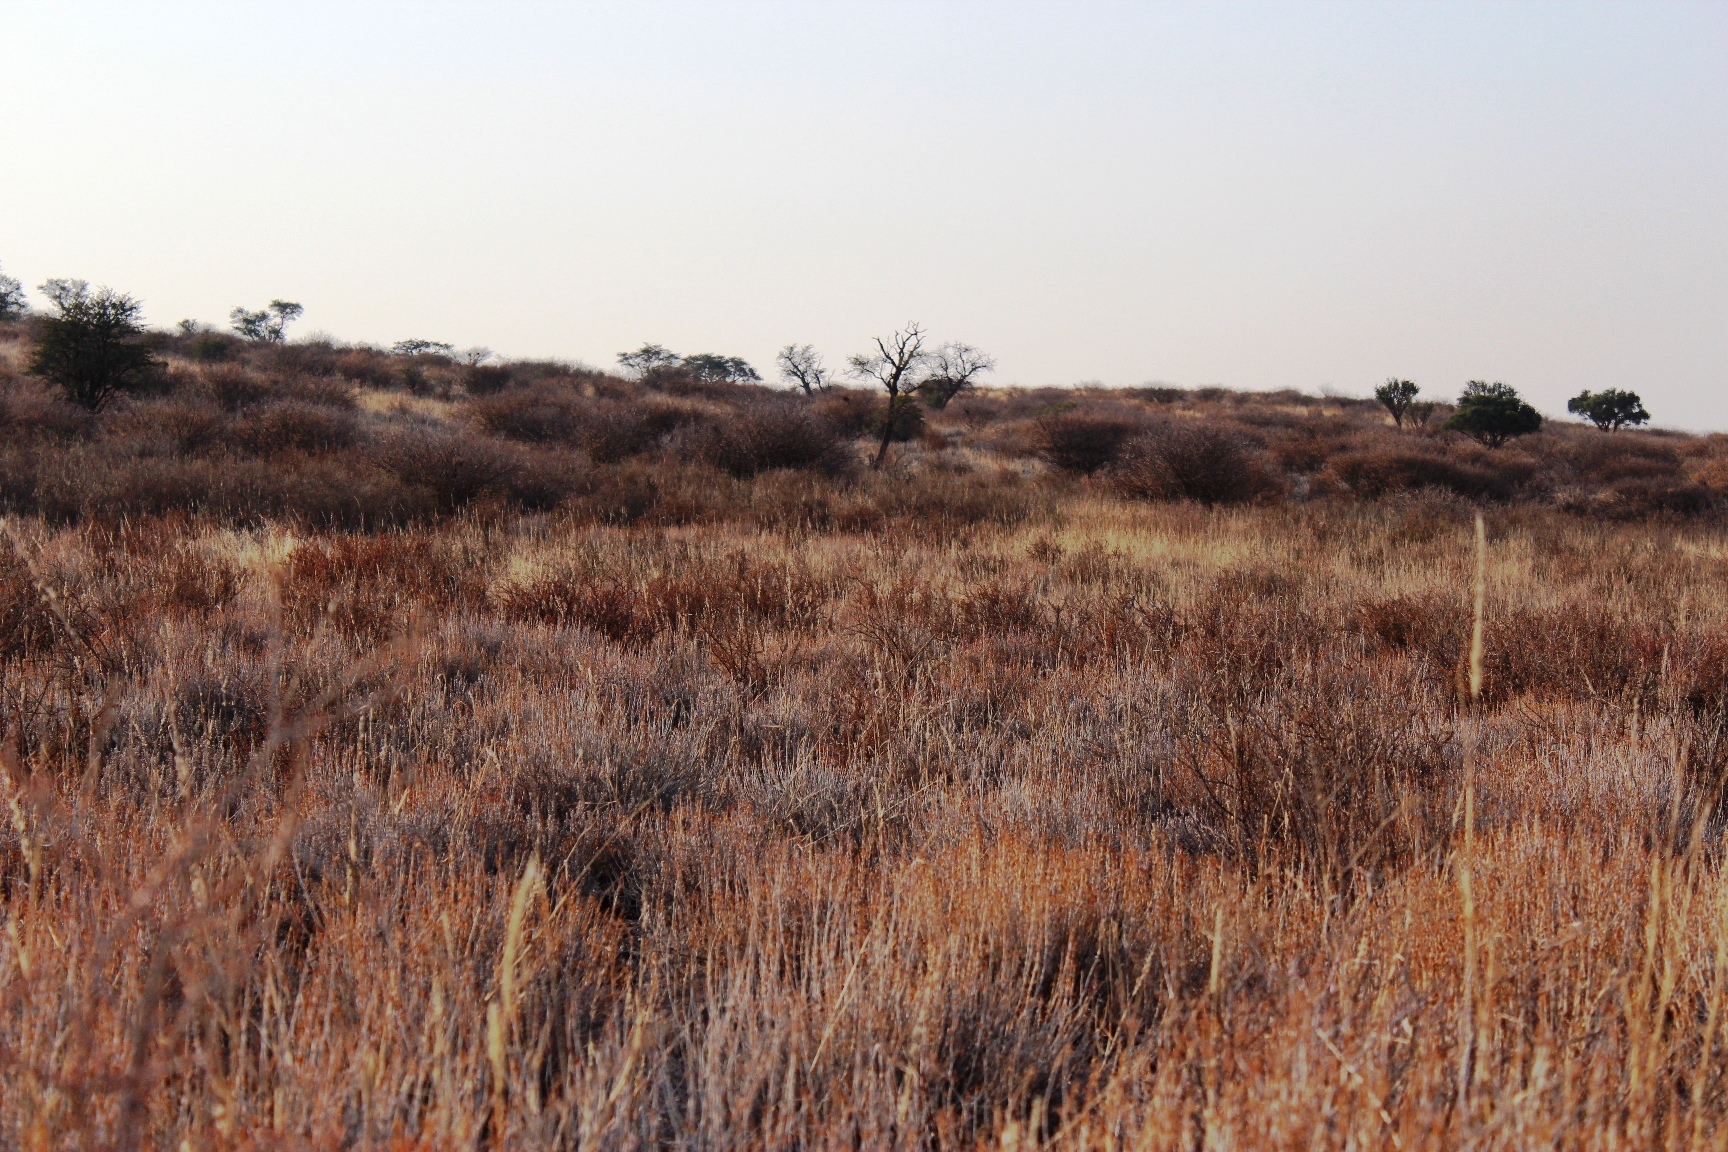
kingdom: Plantae
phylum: Tracheophyta
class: Magnoliopsida
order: Fabales
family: Fabaceae
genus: Senegalia
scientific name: Senegalia mellifera
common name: Hookthorn
